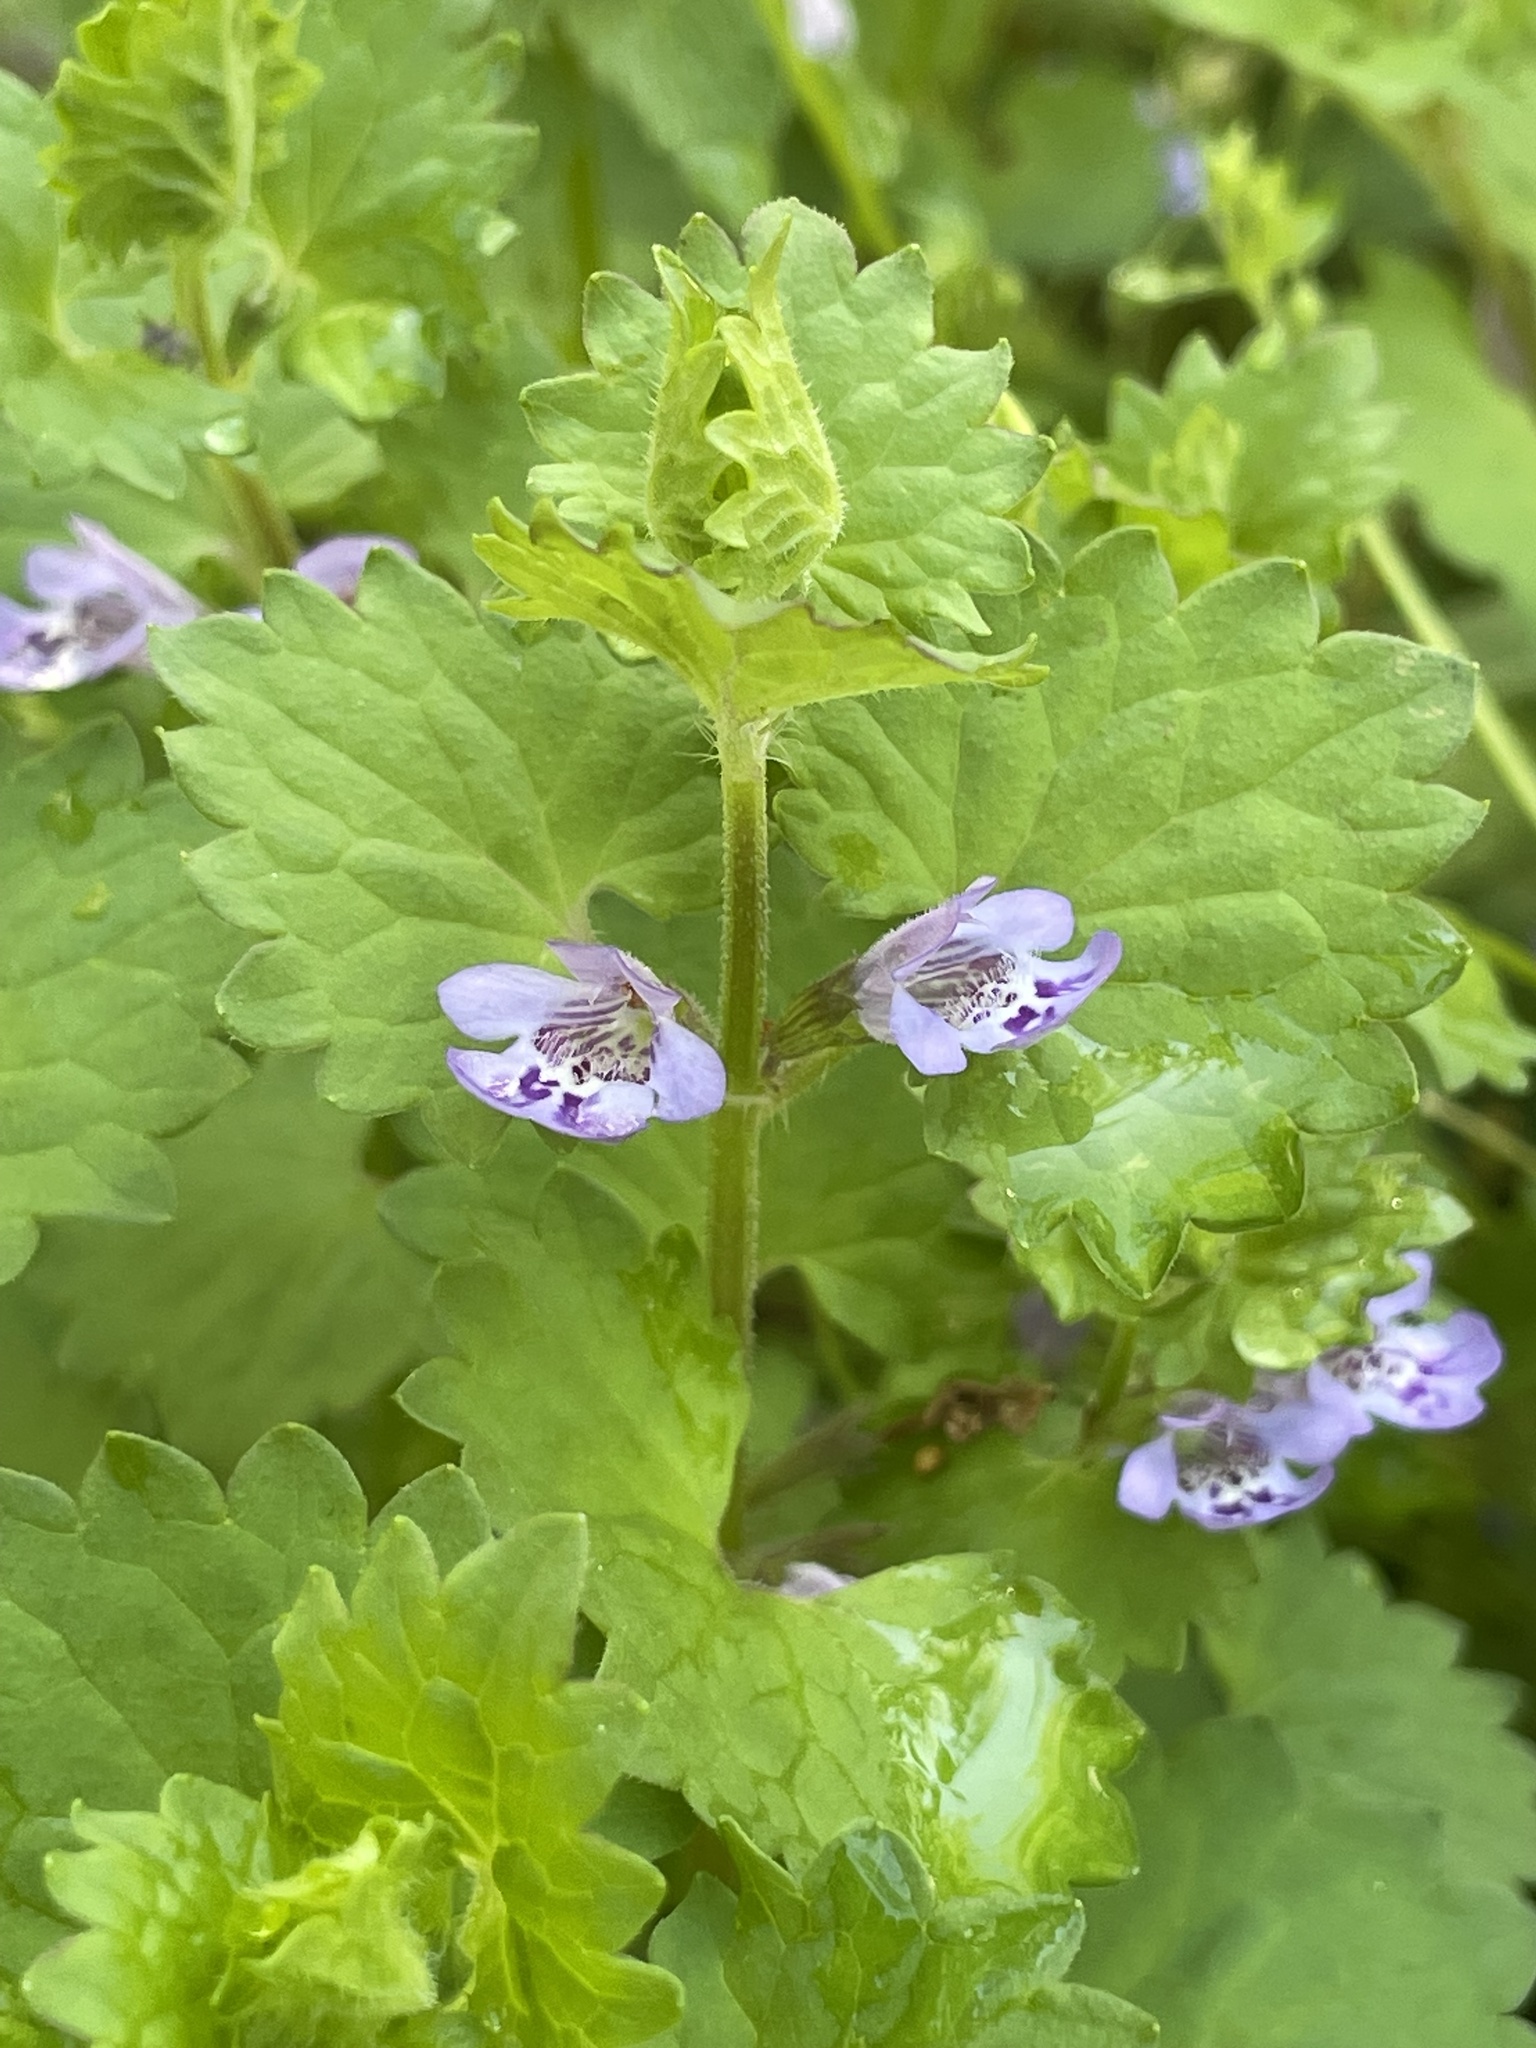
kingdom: Plantae
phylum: Tracheophyta
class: Magnoliopsida
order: Lamiales
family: Lamiaceae
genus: Glechoma
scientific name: Glechoma hederacea
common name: Ground ivy
